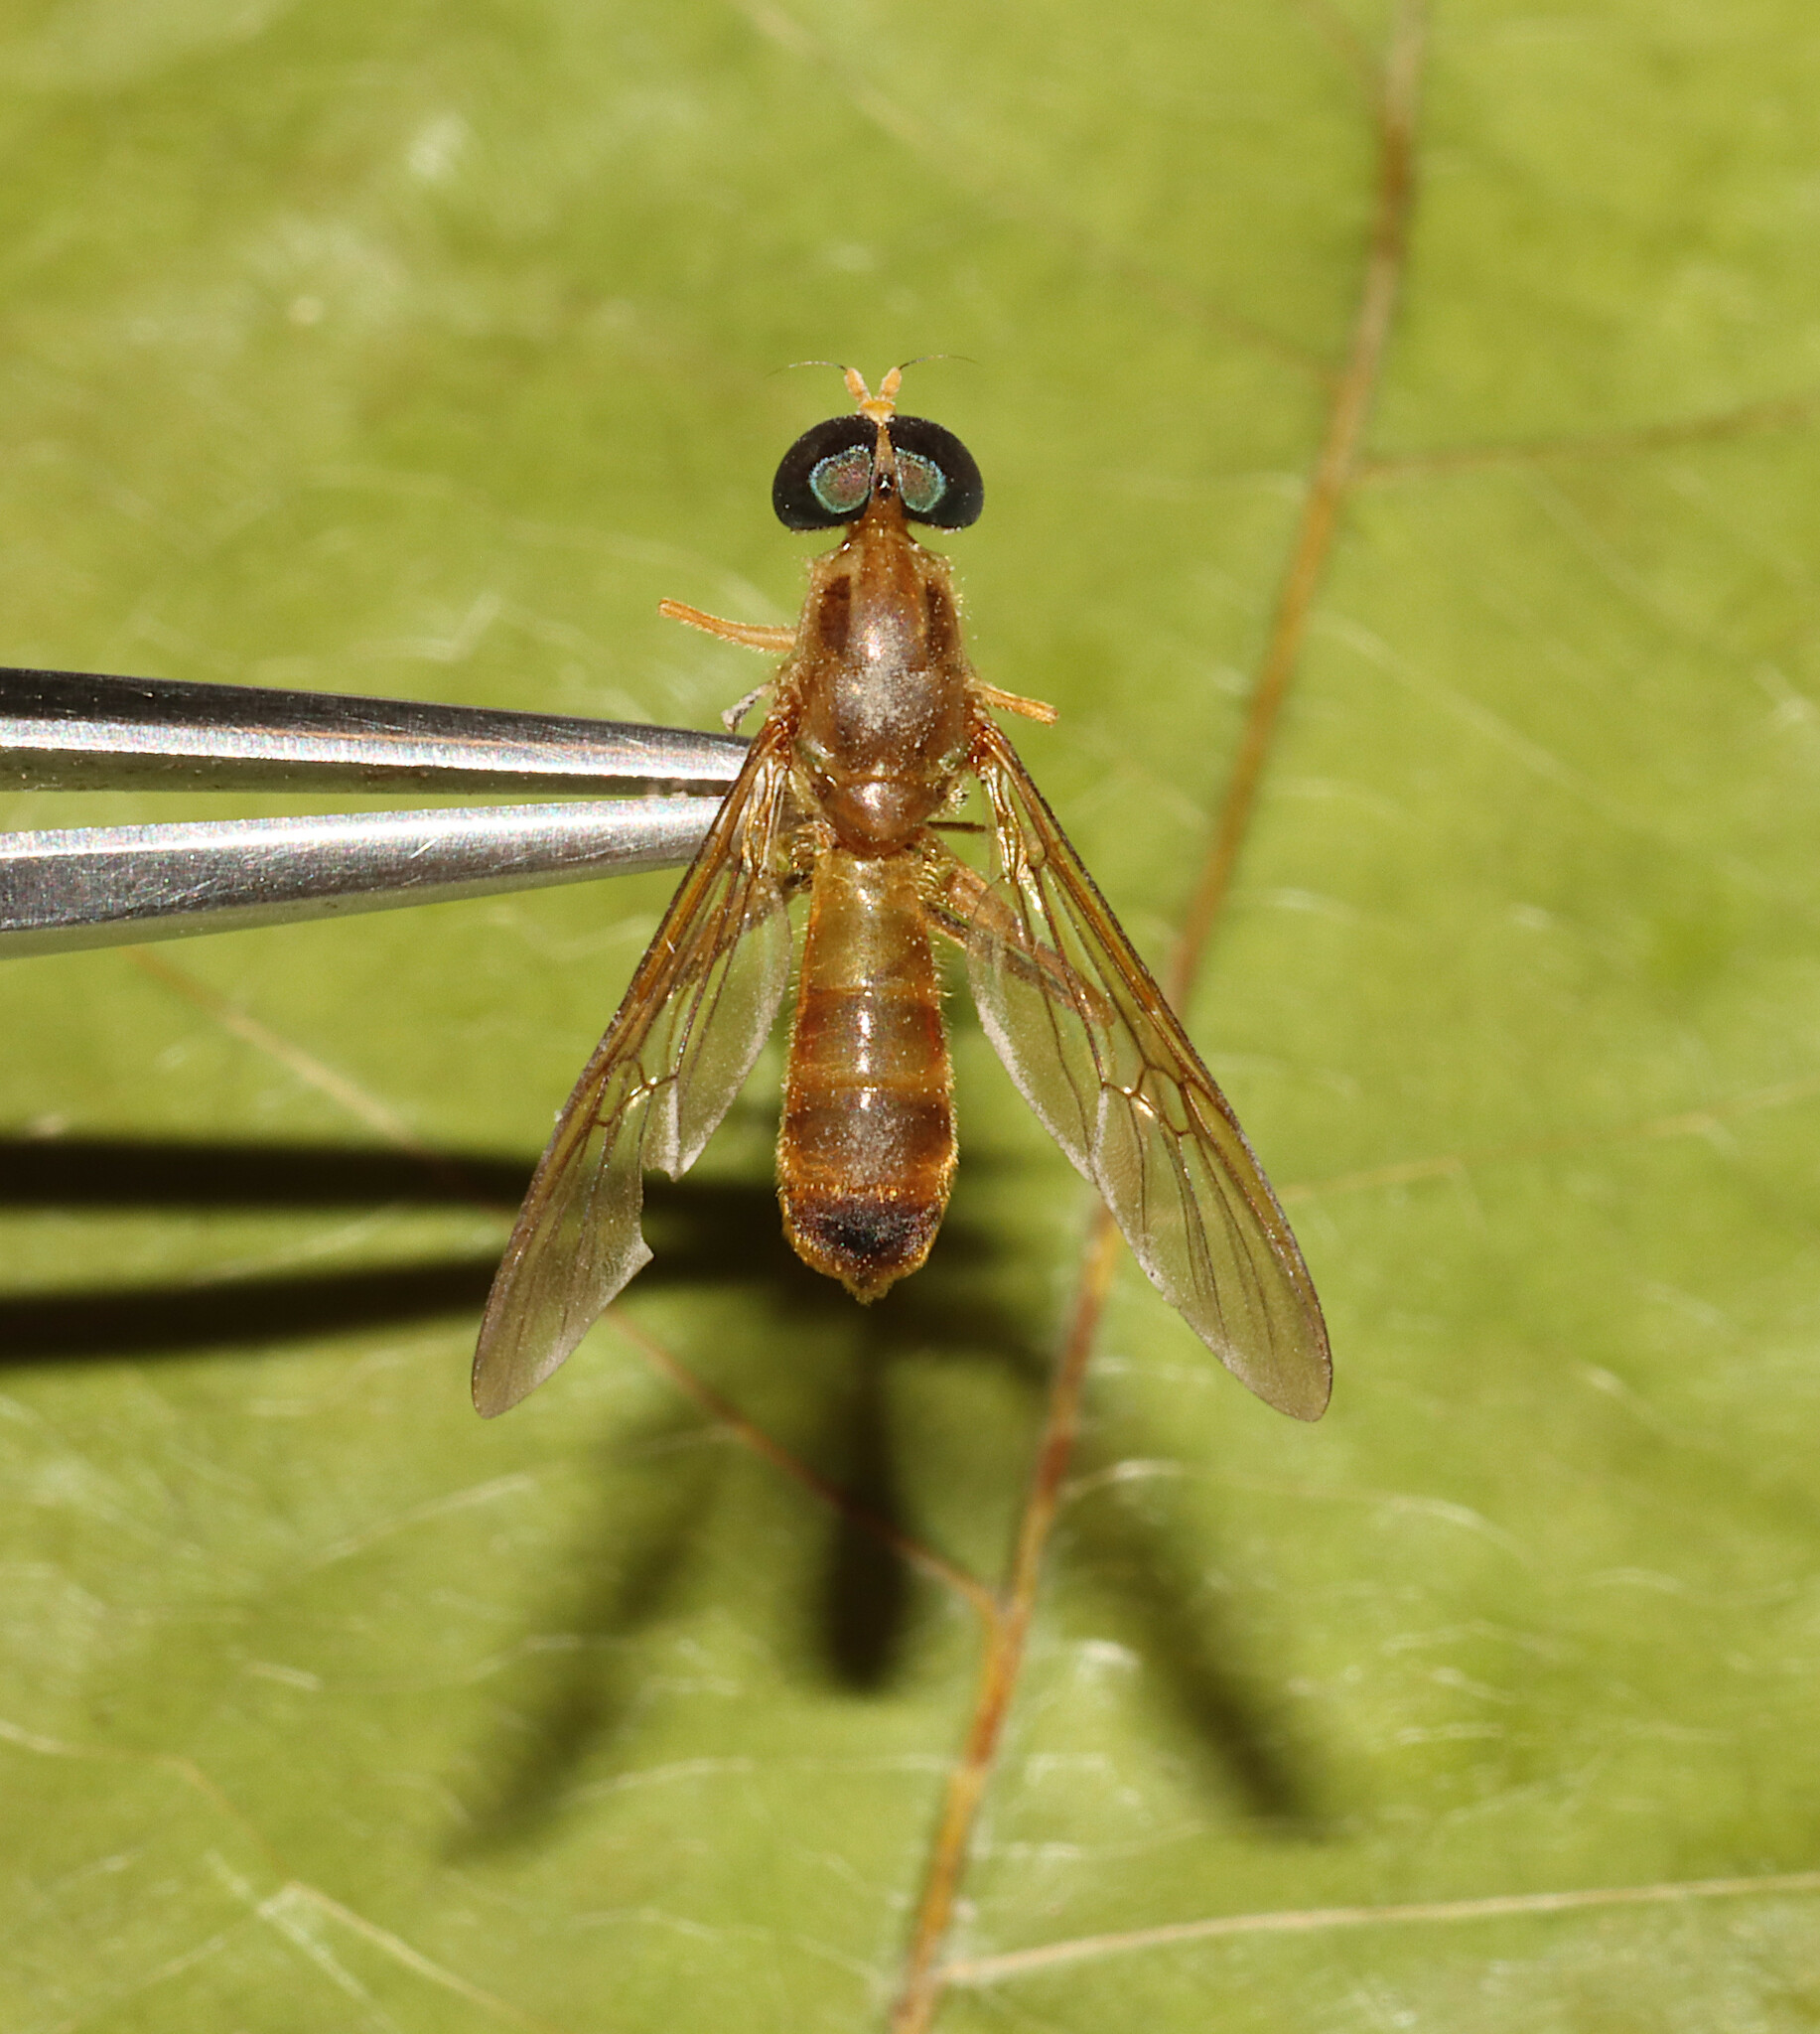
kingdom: Animalia
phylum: Arthropoda
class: Insecta
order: Diptera
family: Stratiomyidae
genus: Ptecticus
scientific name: Ptecticus trivittatus
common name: Compost fly
